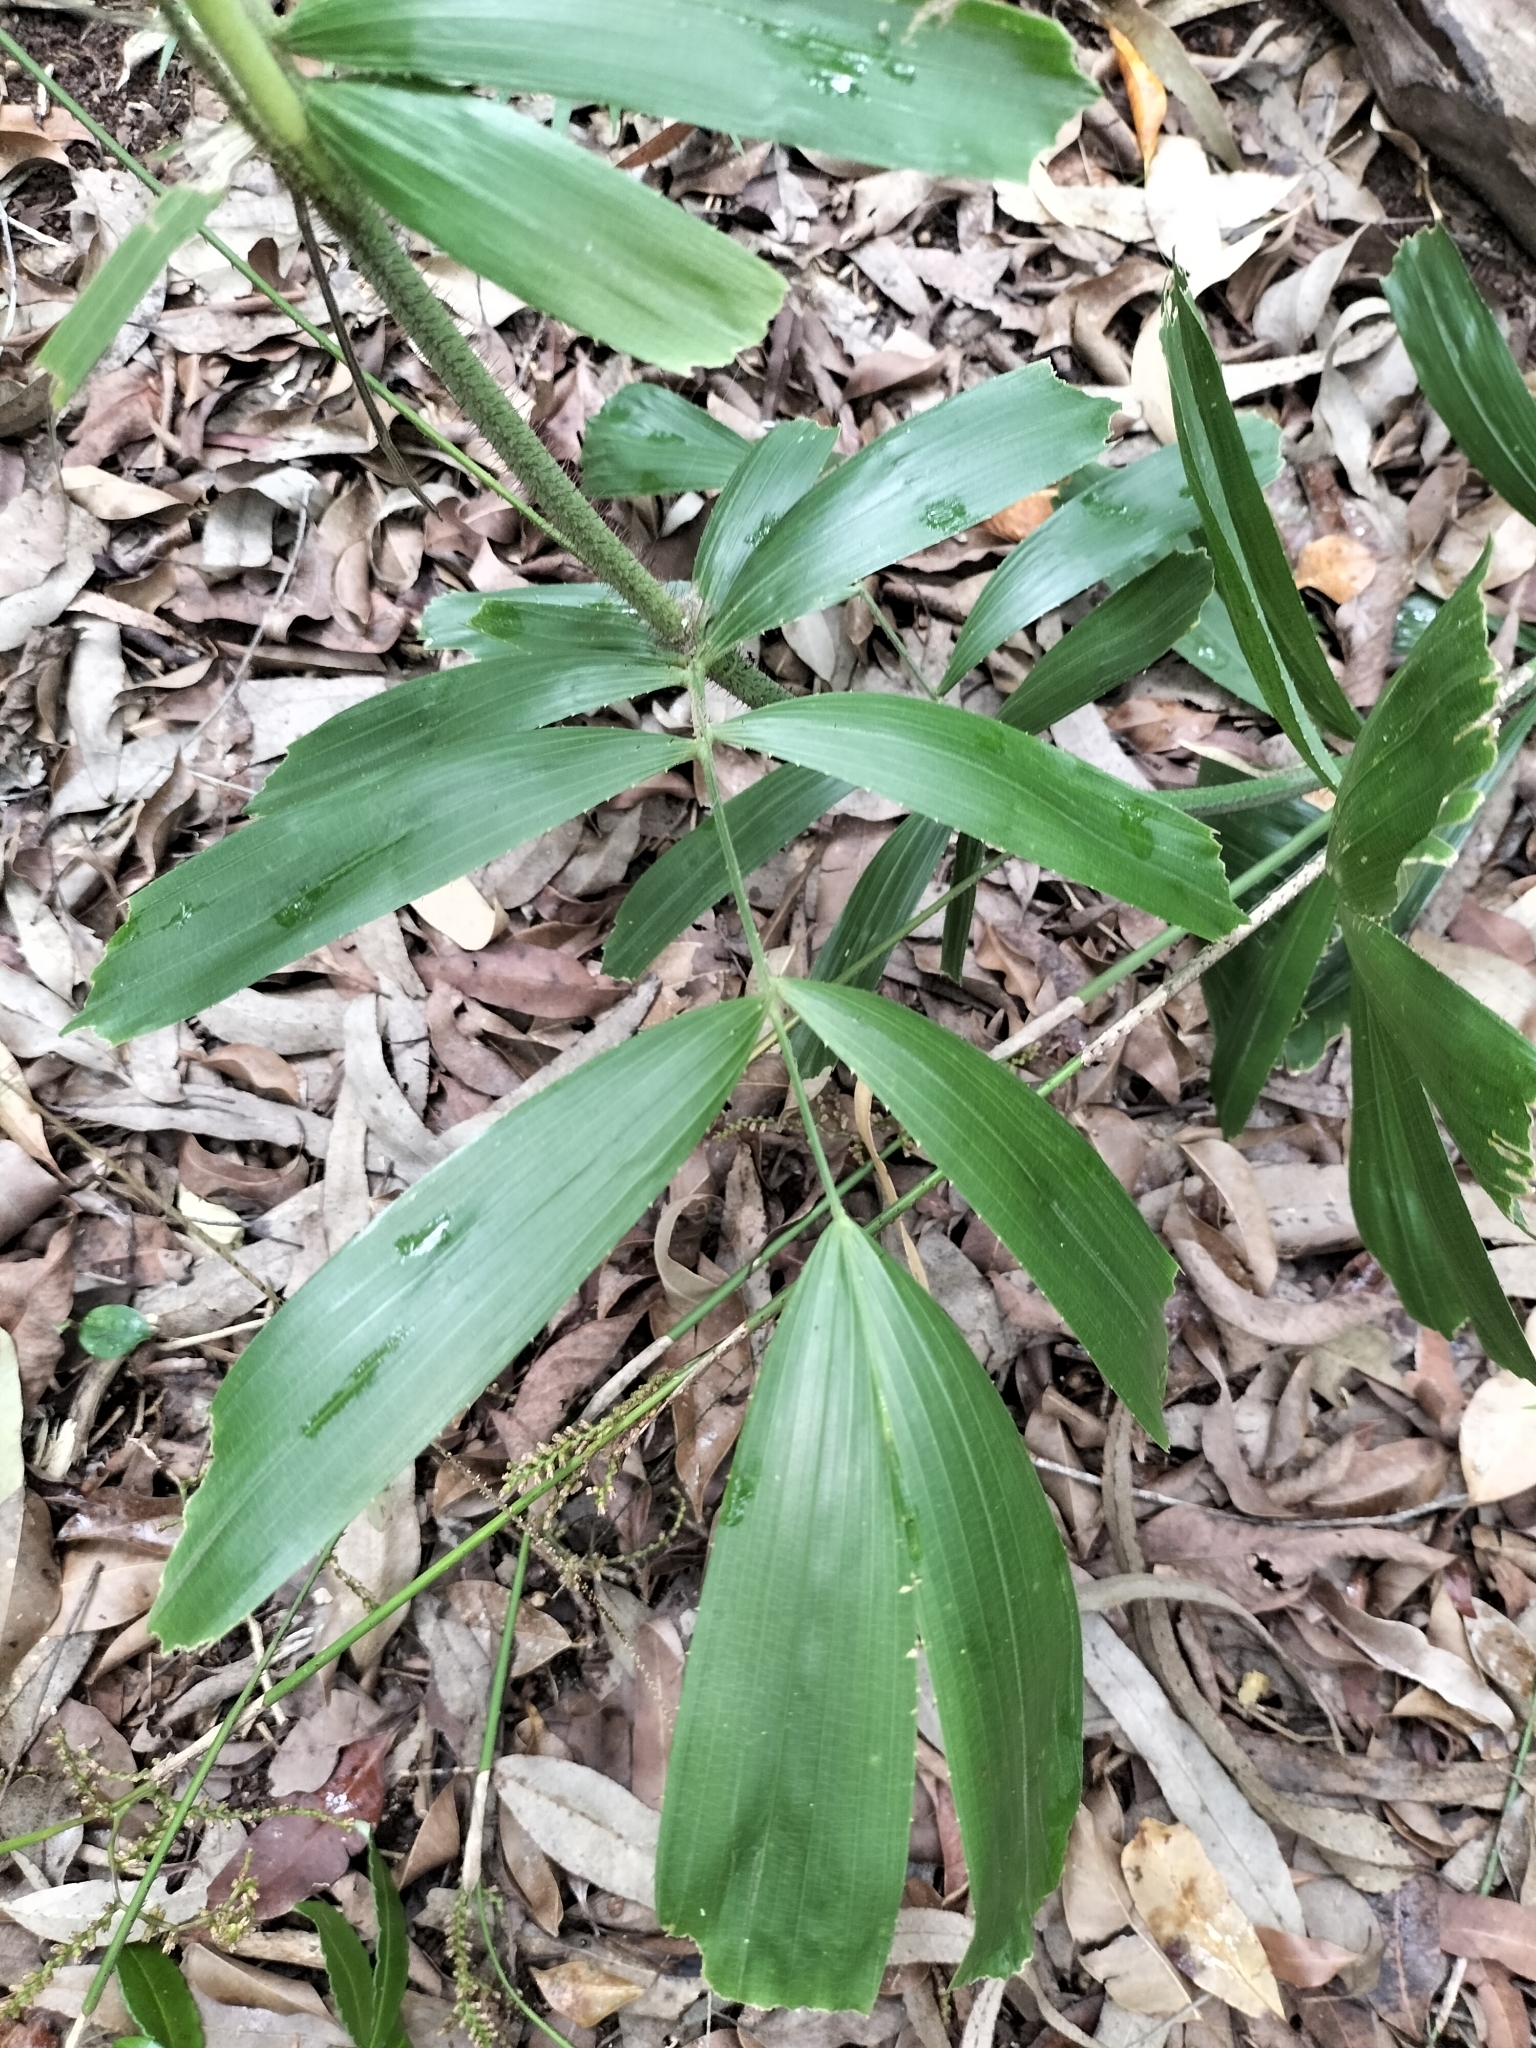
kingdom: Plantae
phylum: Tracheophyta
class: Liliopsida
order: Arecales
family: Arecaceae
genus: Calamus
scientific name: Calamus caryotoides
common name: Fishtail lawyer cane
